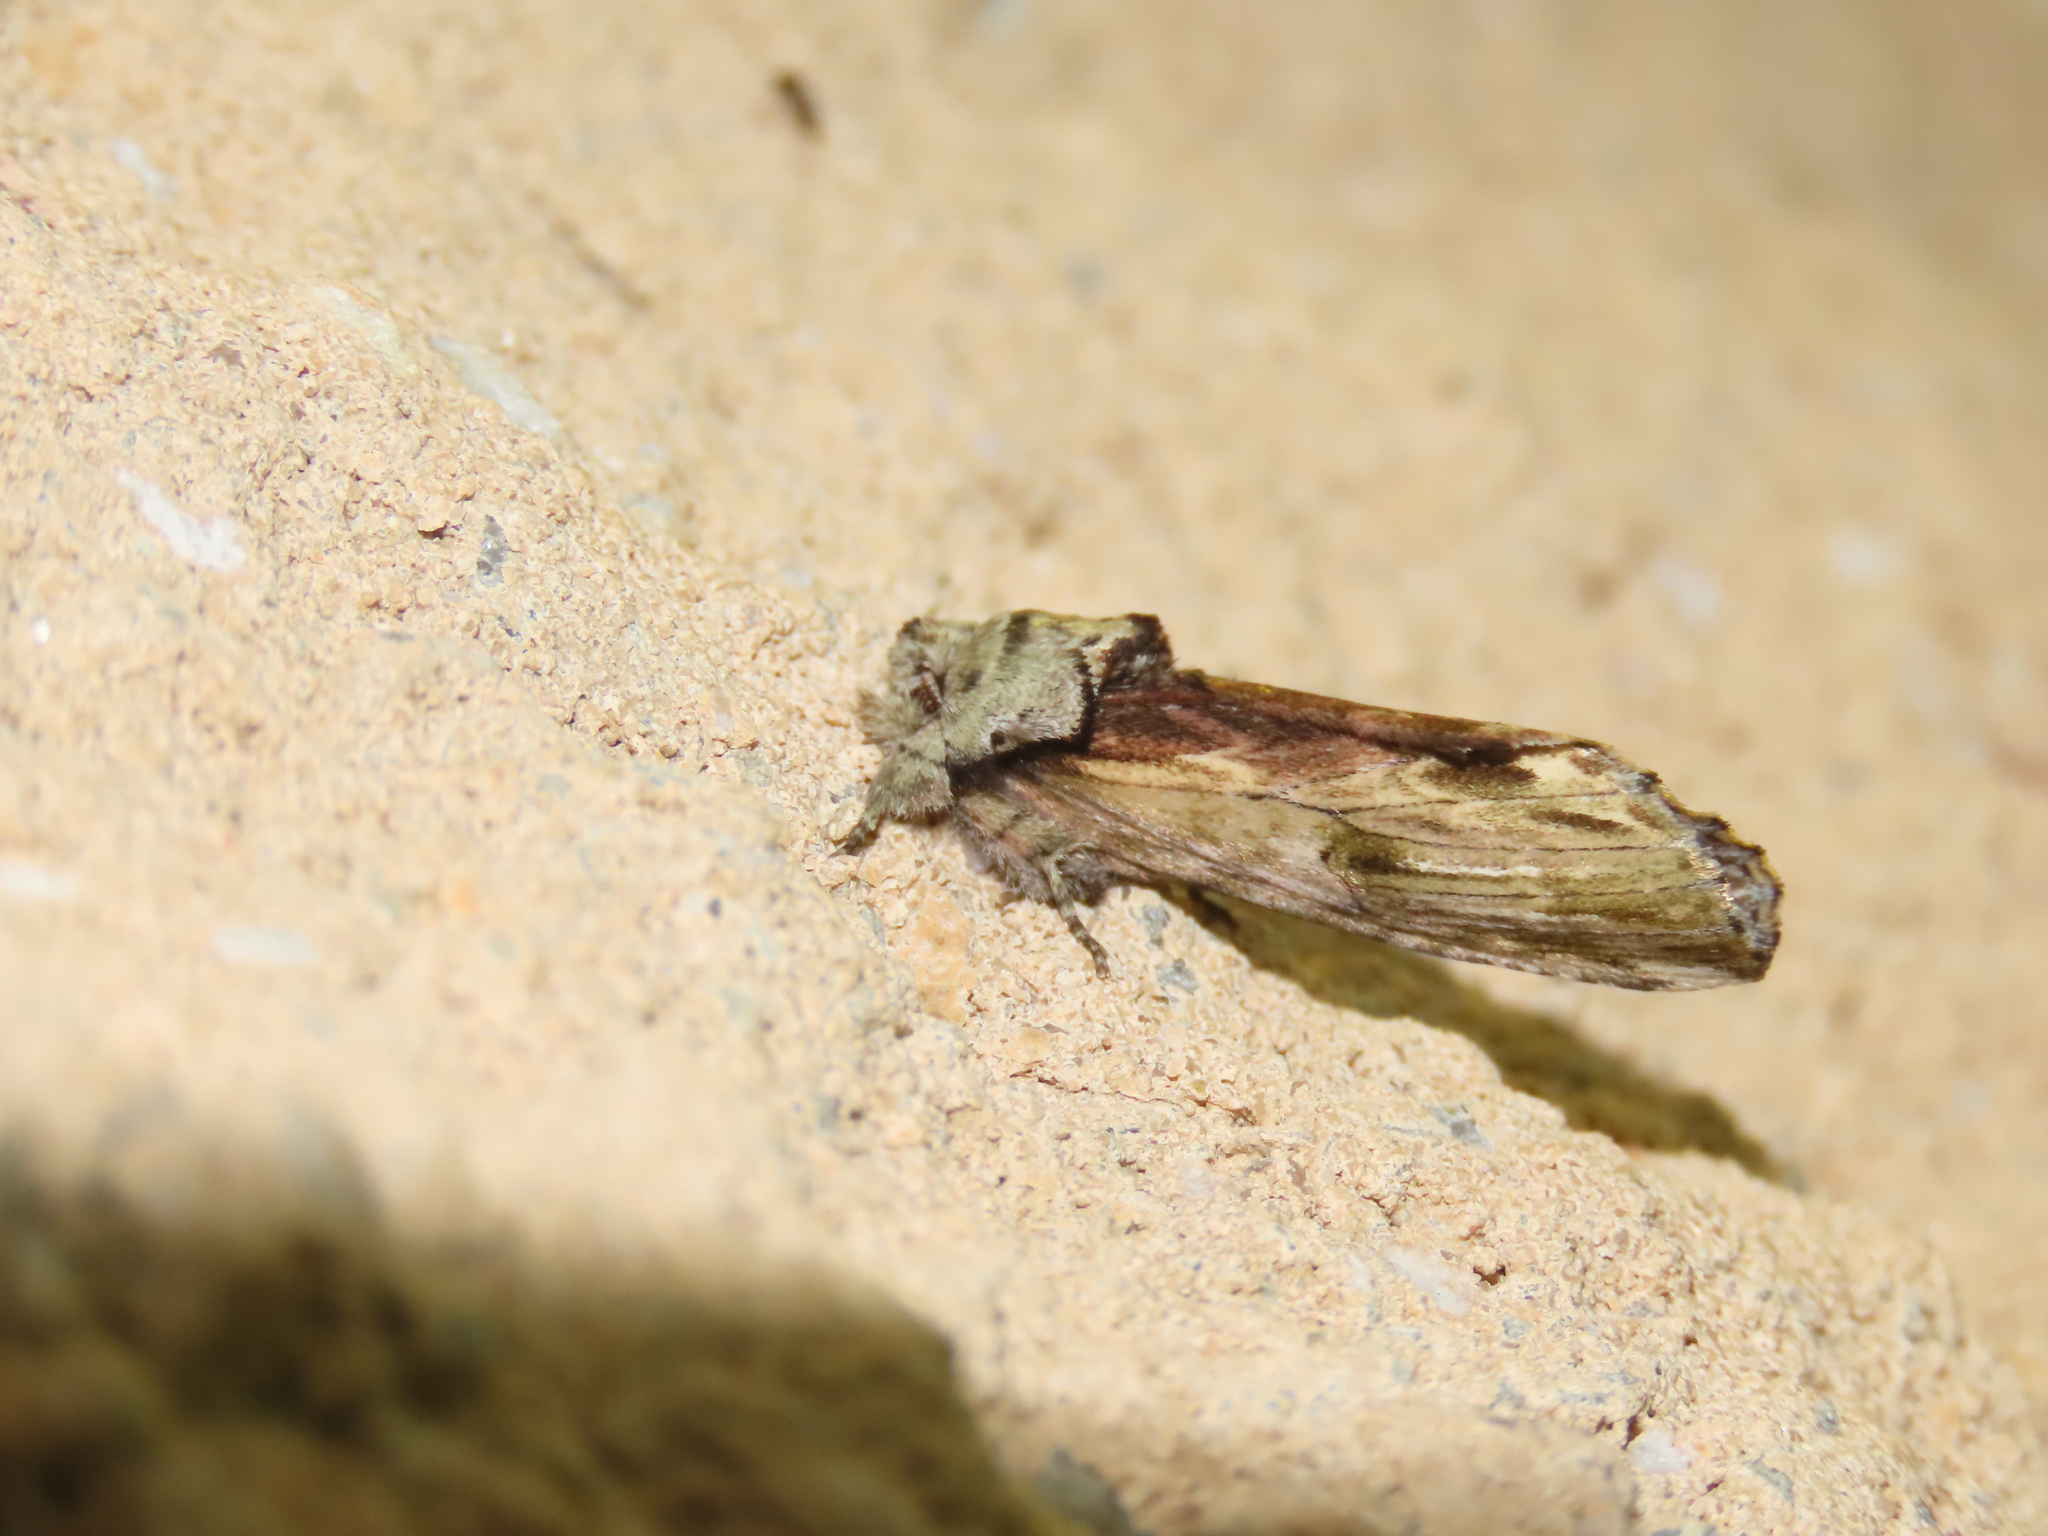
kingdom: Animalia
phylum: Arthropoda
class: Insecta
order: Lepidoptera
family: Notodontidae
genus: Schizura
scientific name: Schizura
